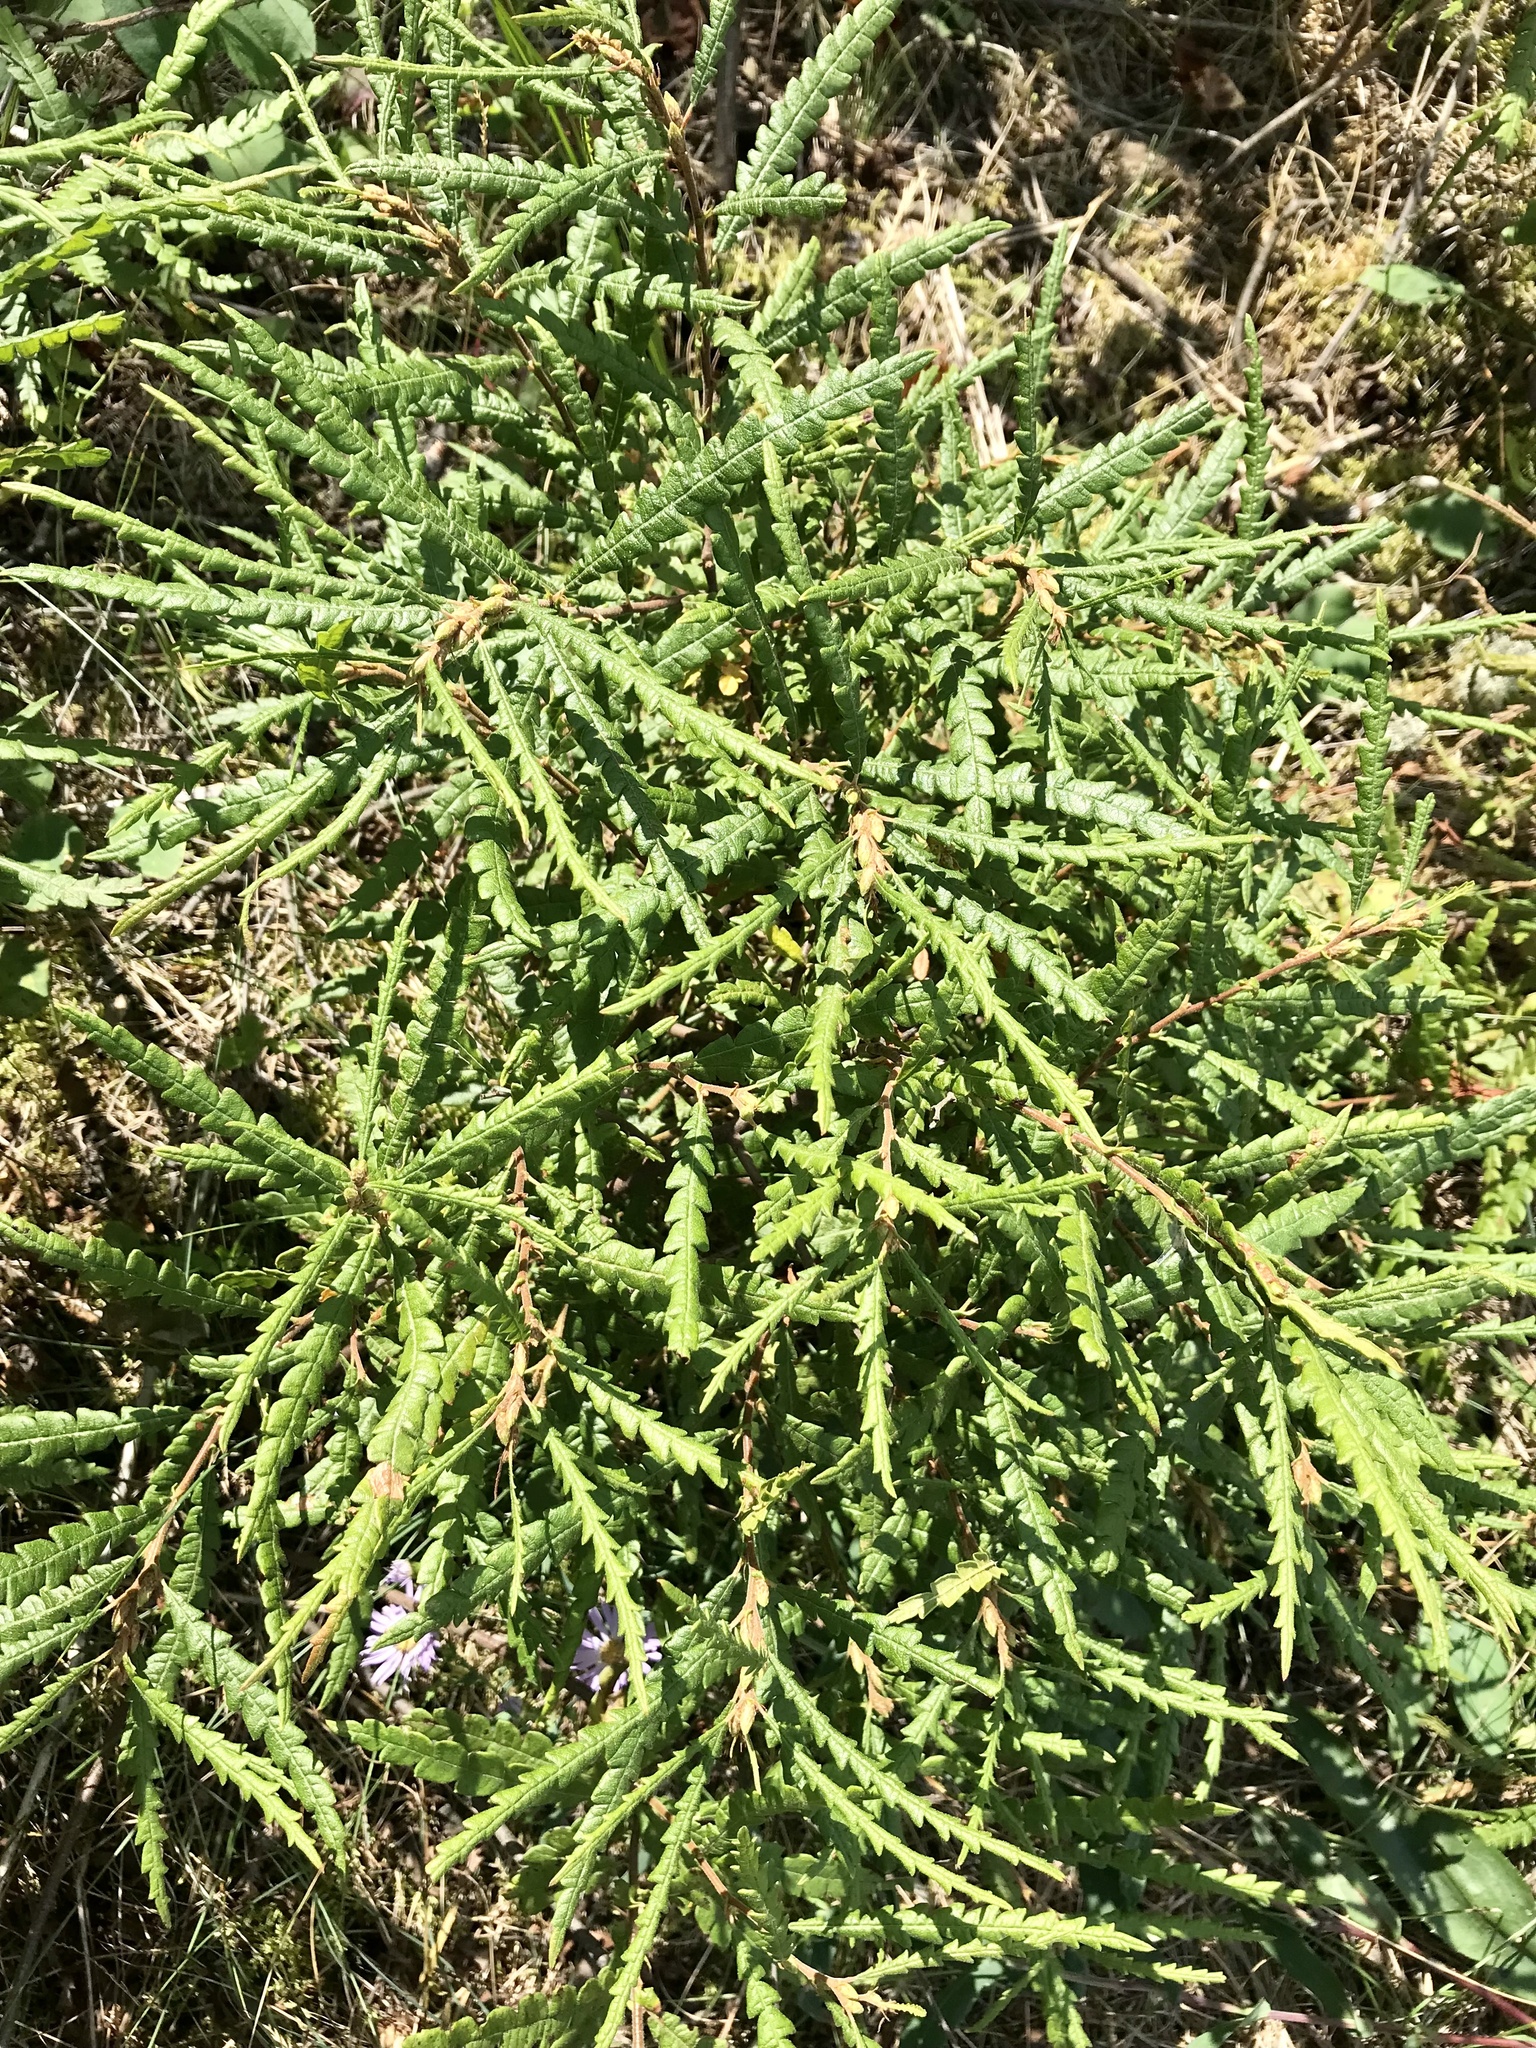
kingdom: Plantae
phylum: Tracheophyta
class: Magnoliopsida
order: Fagales
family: Myricaceae
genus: Comptonia
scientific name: Comptonia peregrina
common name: Sweet-fern
